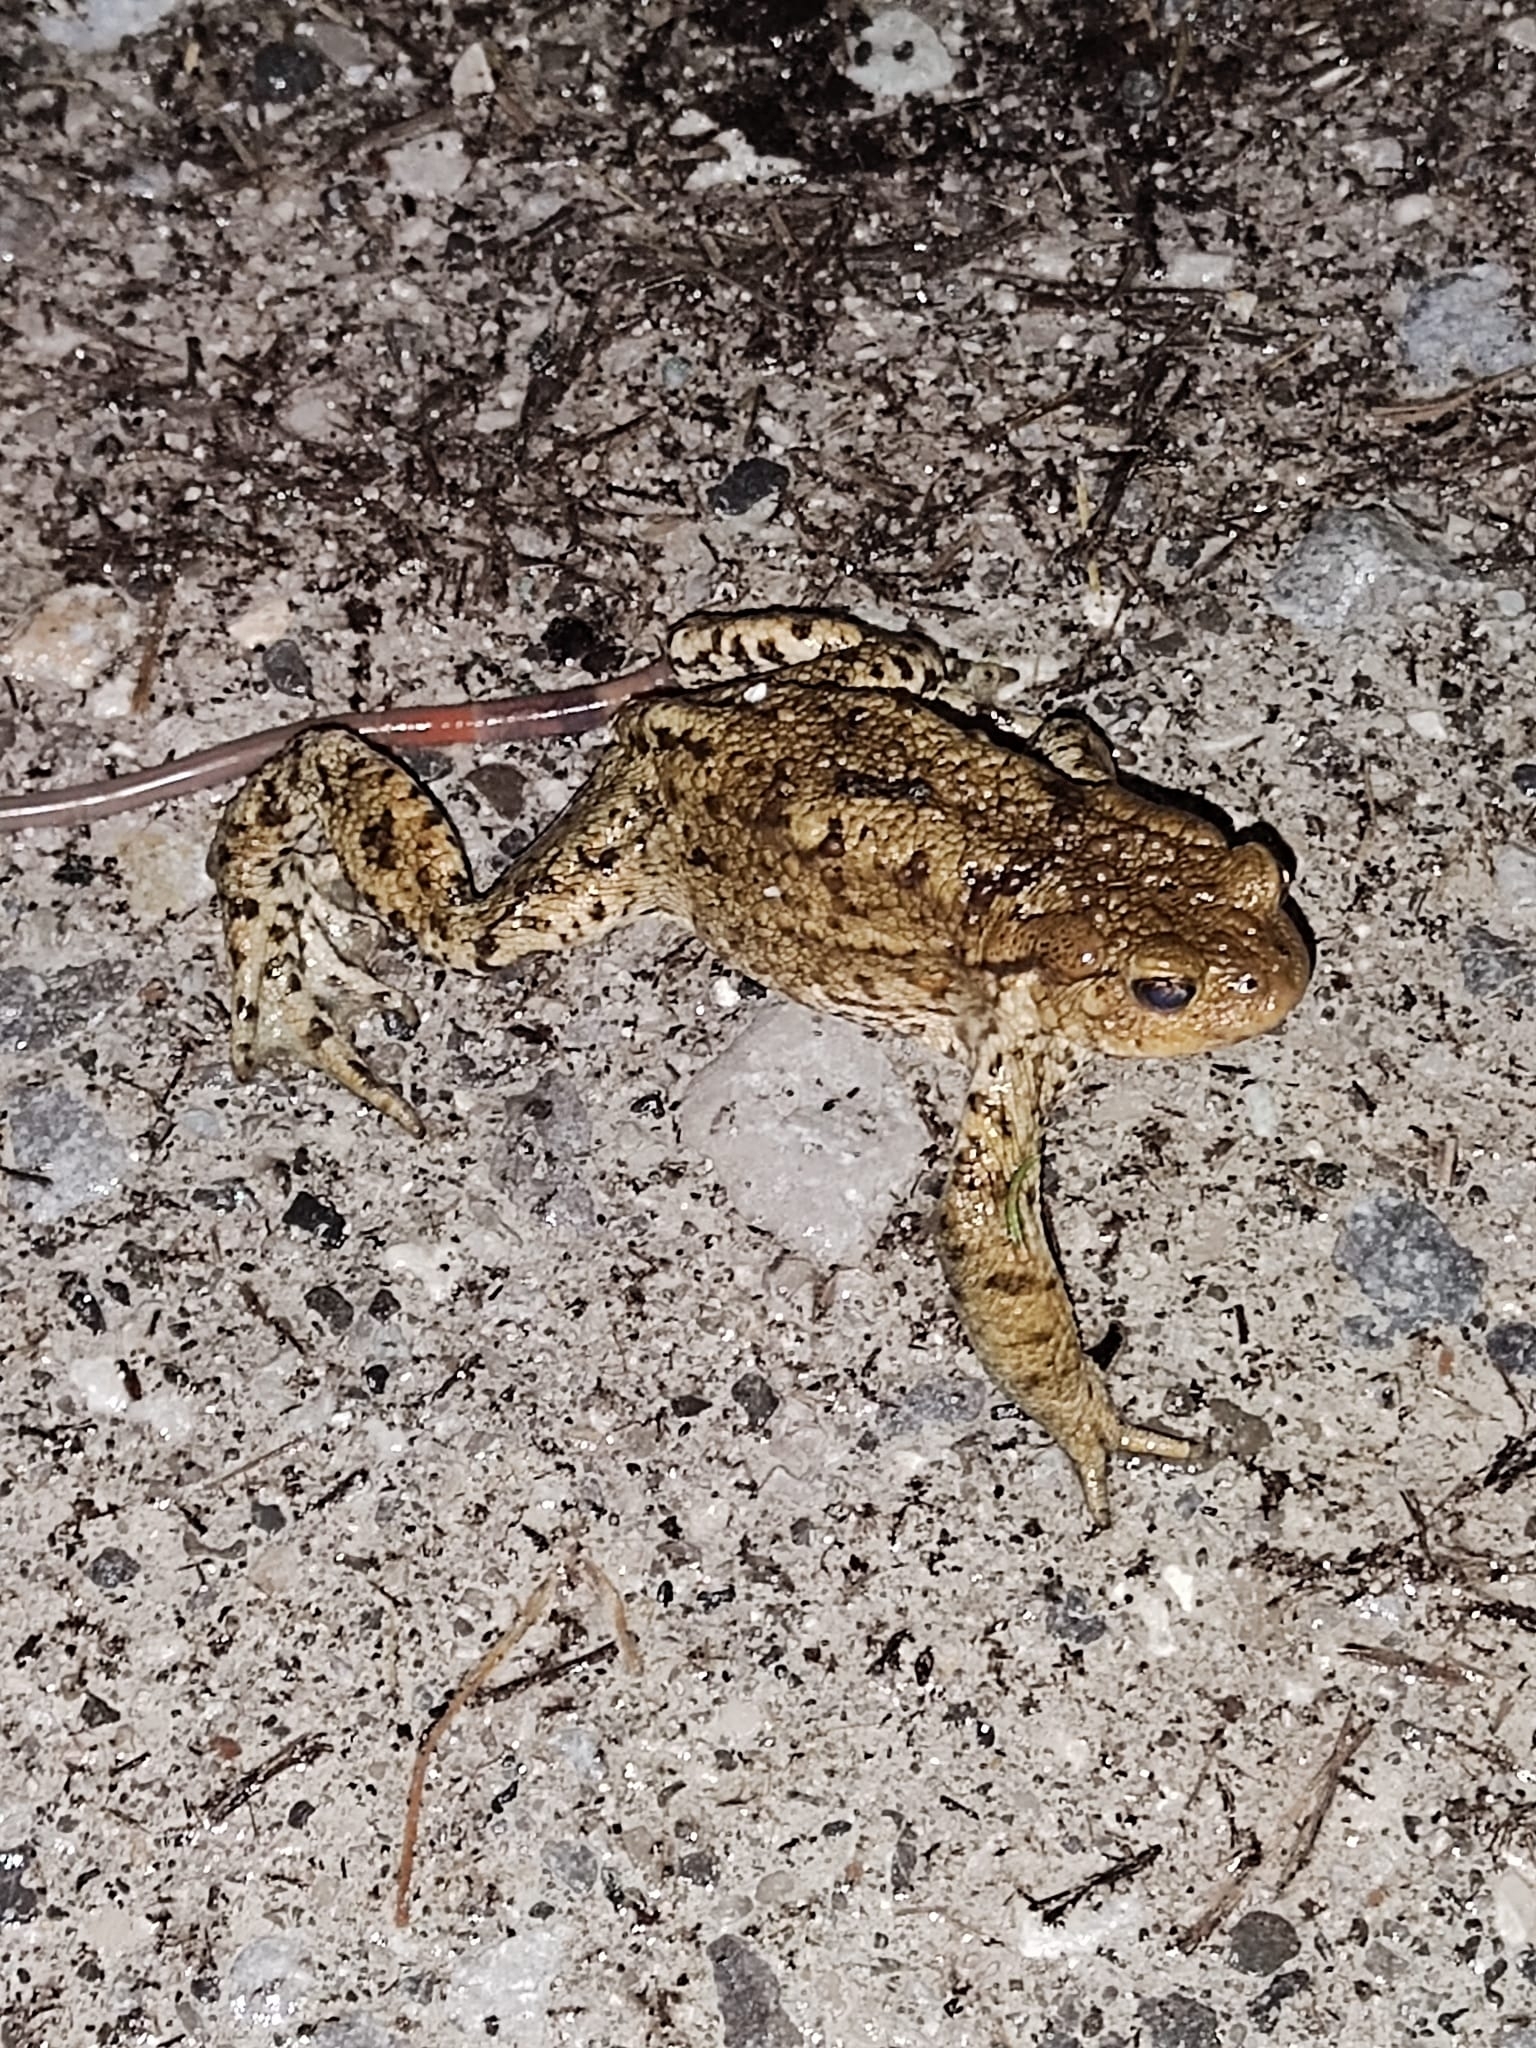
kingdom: Animalia
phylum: Chordata
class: Amphibia
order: Anura
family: Bufonidae
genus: Bufo
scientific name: Bufo bufo
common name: Common toad
